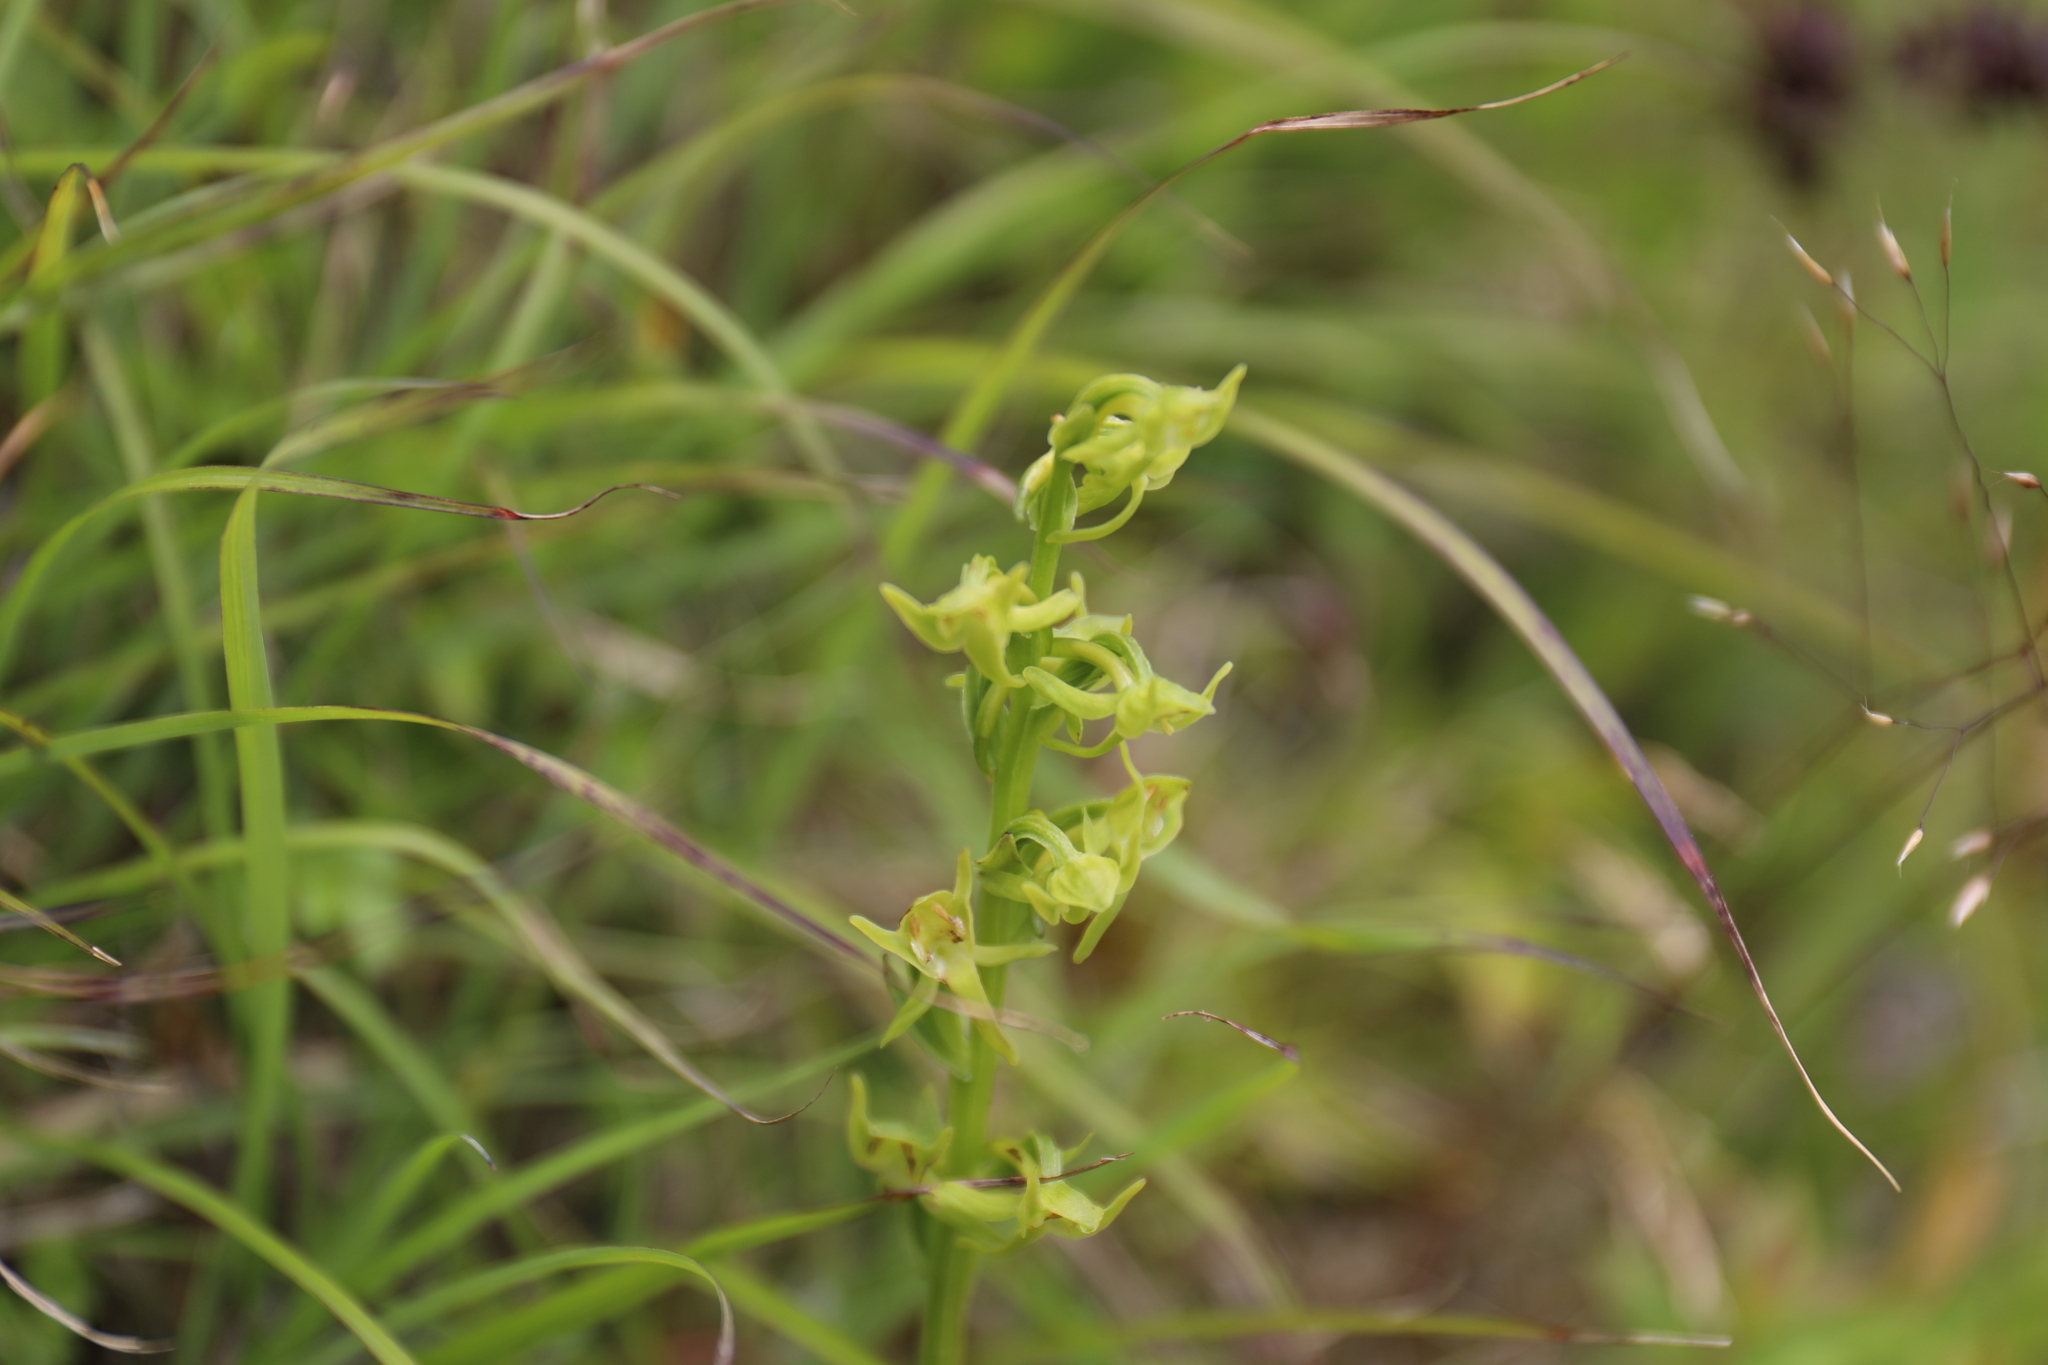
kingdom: Plantae
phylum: Tracheophyta
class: Liliopsida
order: Asparagales
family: Orchidaceae
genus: Platanthera
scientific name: Platanthera mandarinorum
